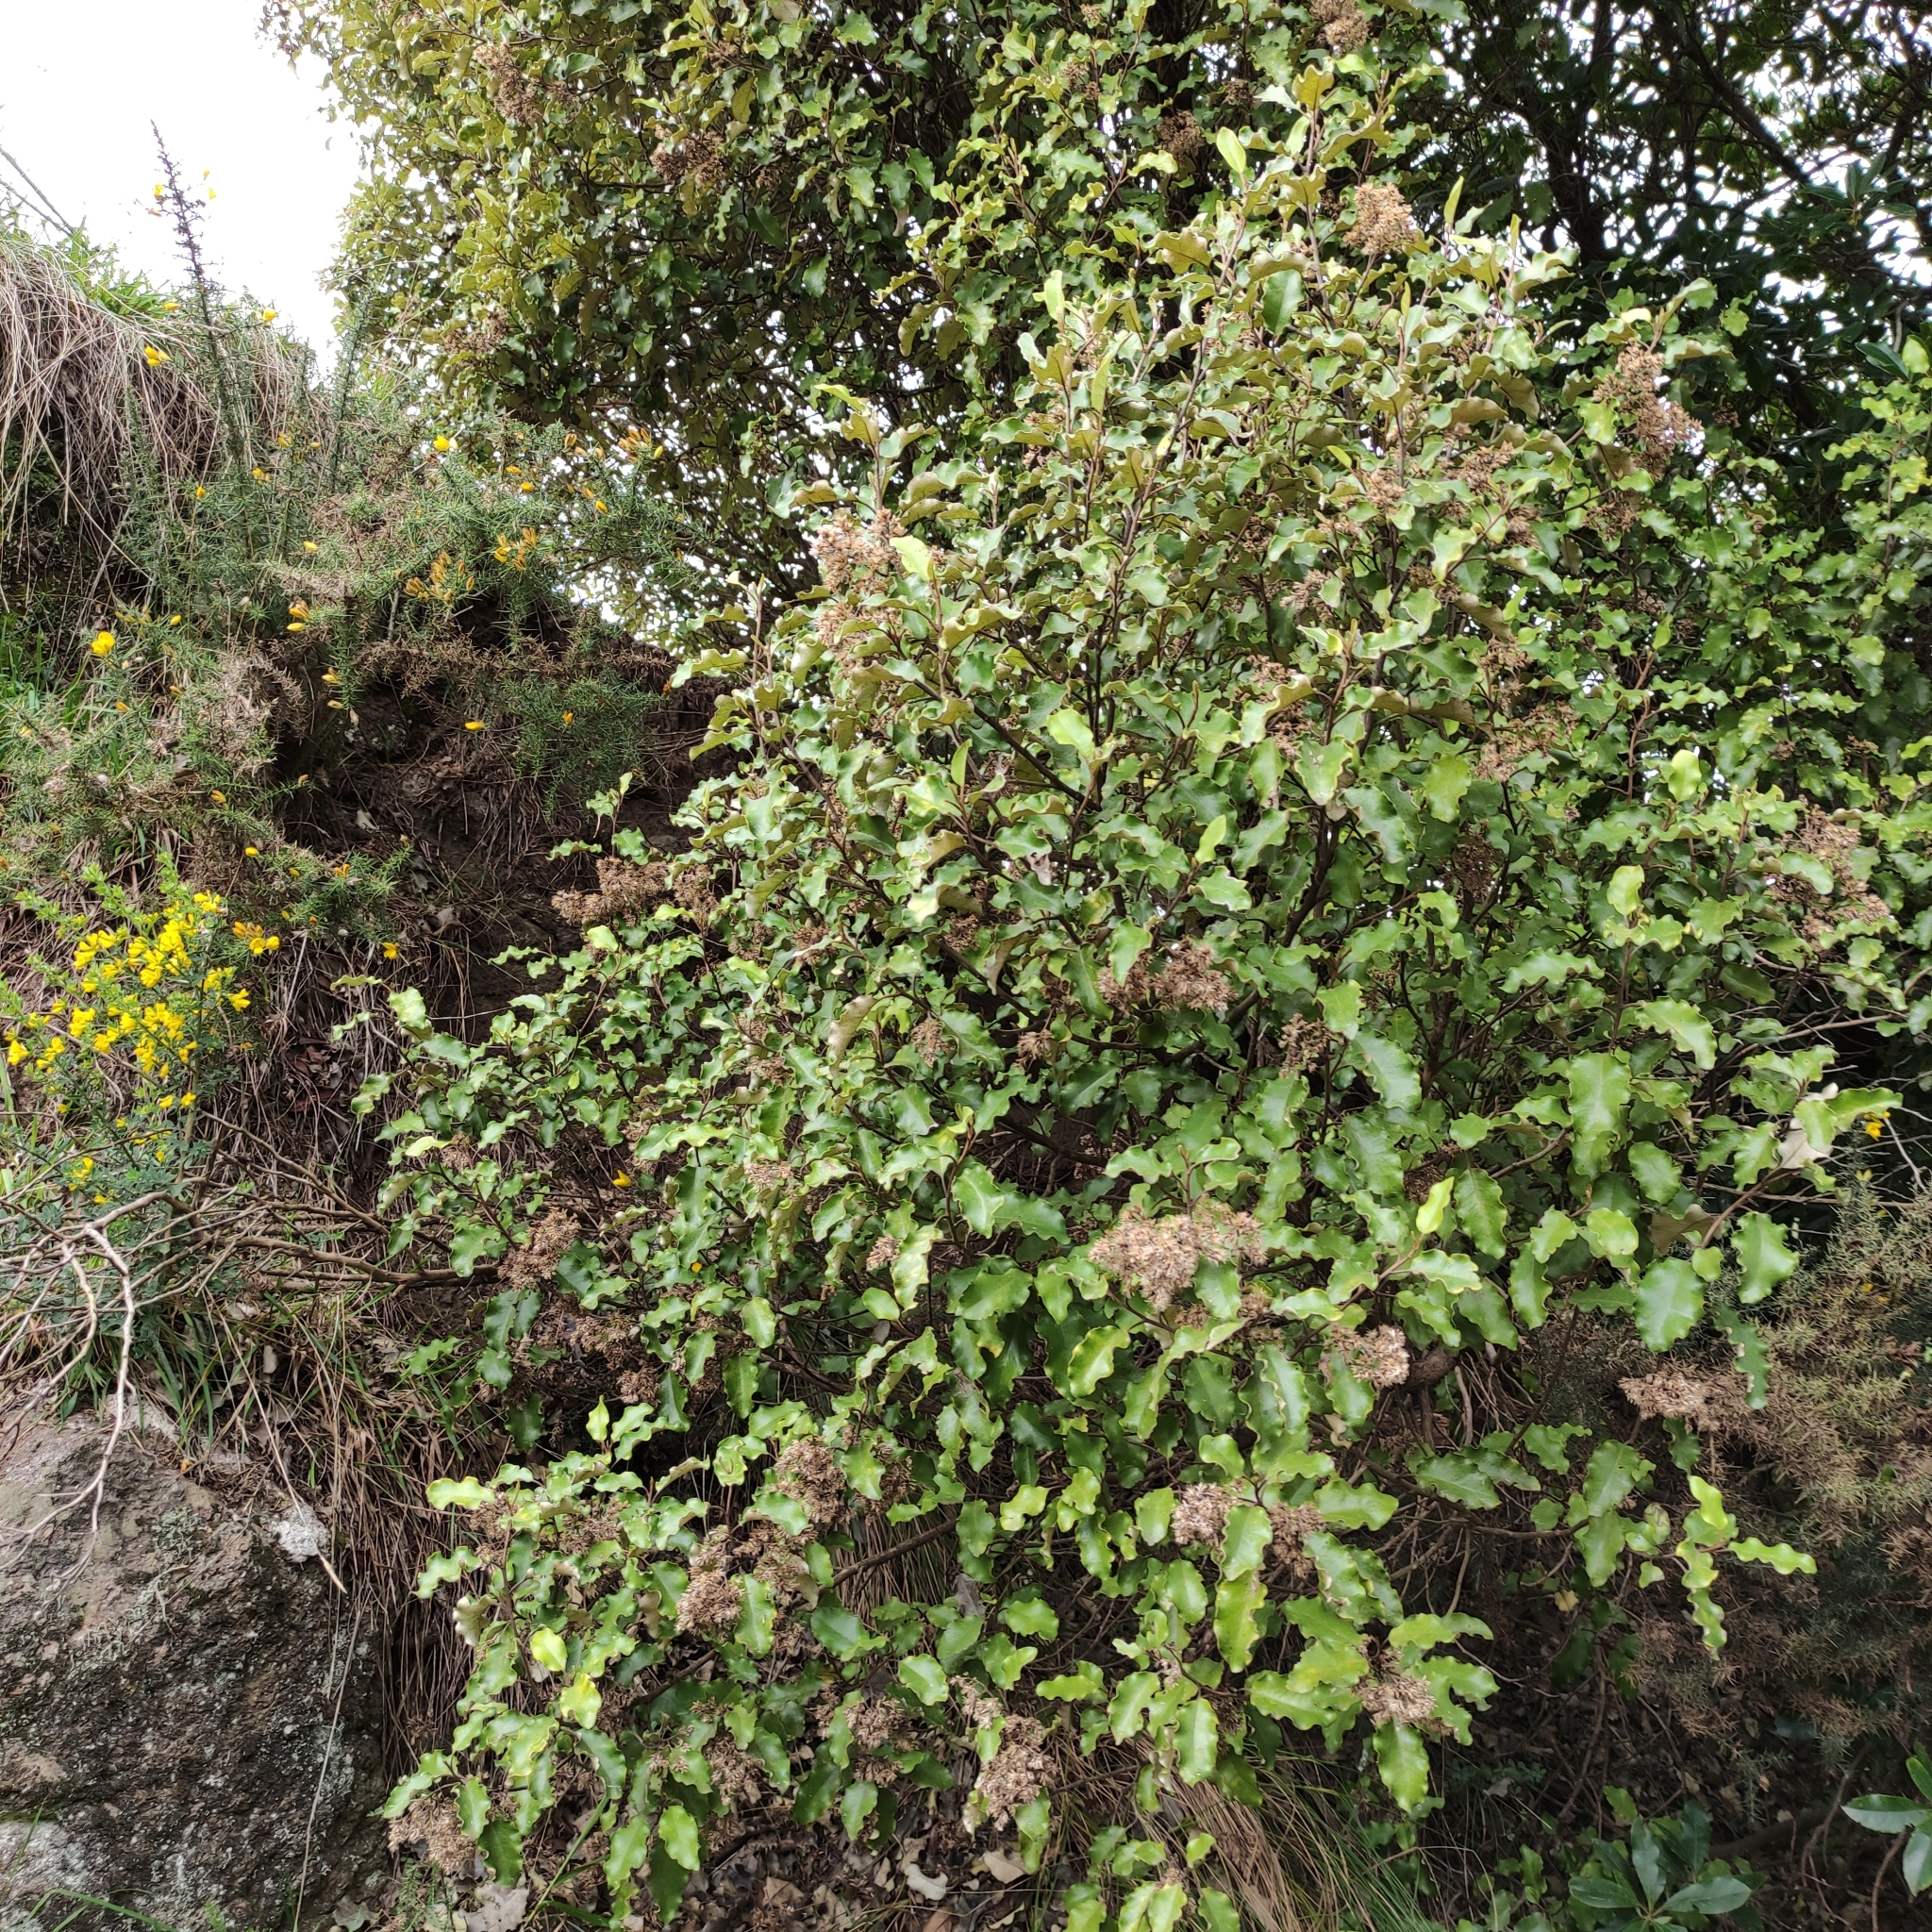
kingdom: Plantae
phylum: Tracheophyta
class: Magnoliopsida
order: Asterales
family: Asteraceae
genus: Olearia
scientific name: Olearia paniculata
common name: Akiraho
